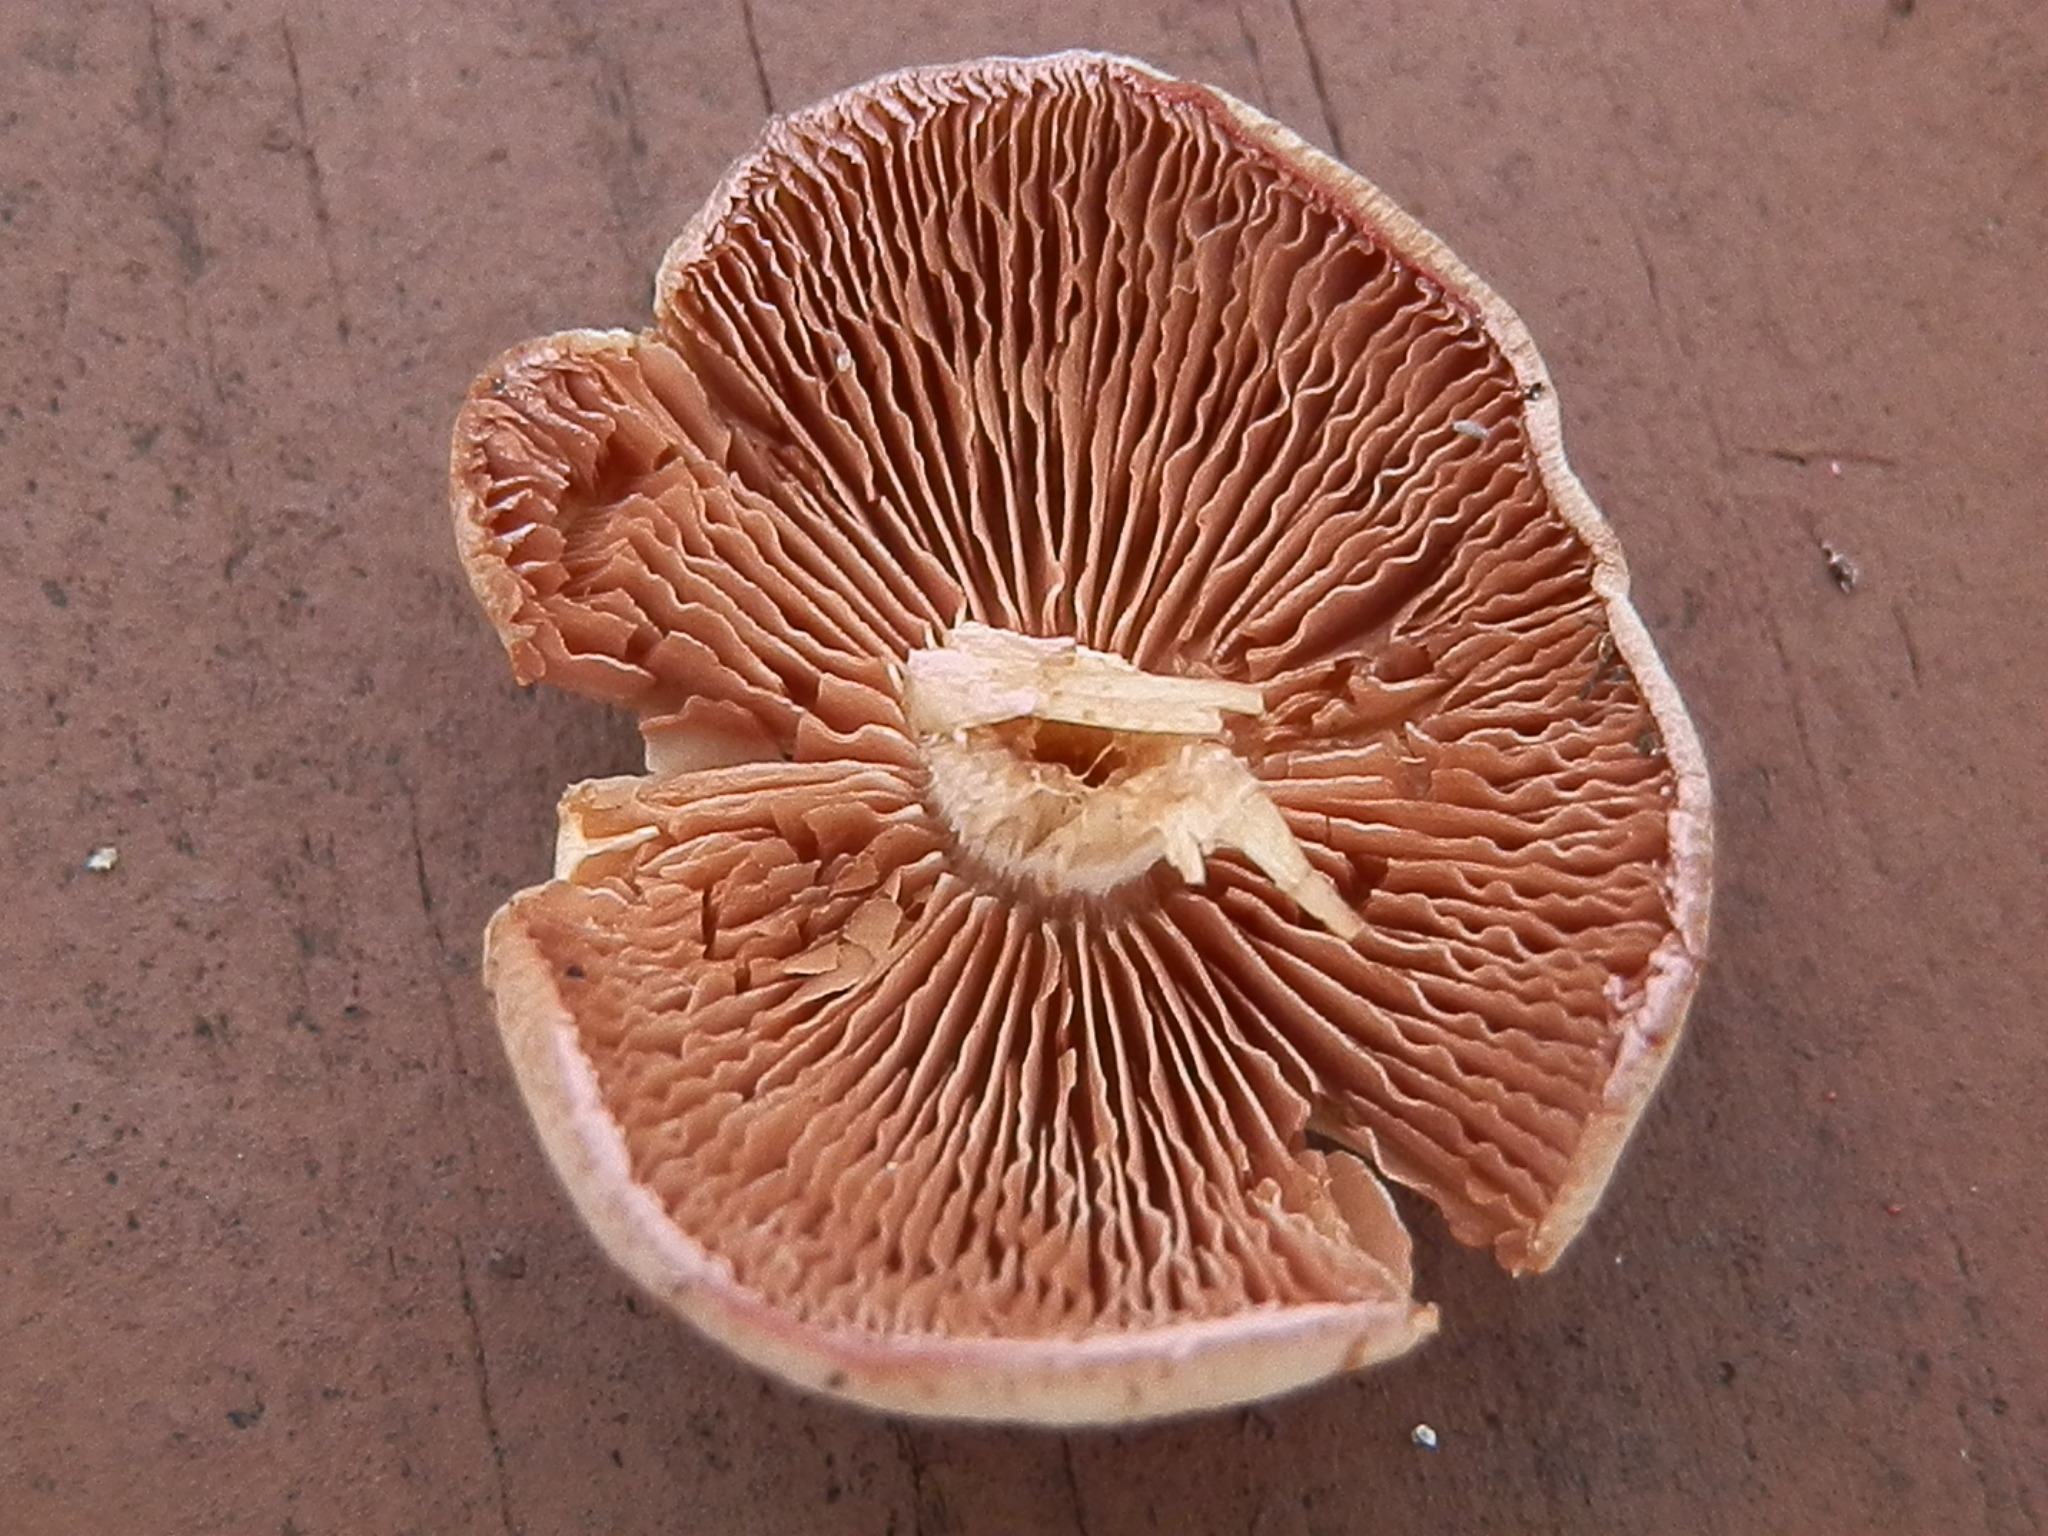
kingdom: Fungi
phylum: Basidiomycota
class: Agaricomycetes
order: Agaricales
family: Psathyrellaceae
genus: Psathyrella
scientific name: Psathyrella conissans
